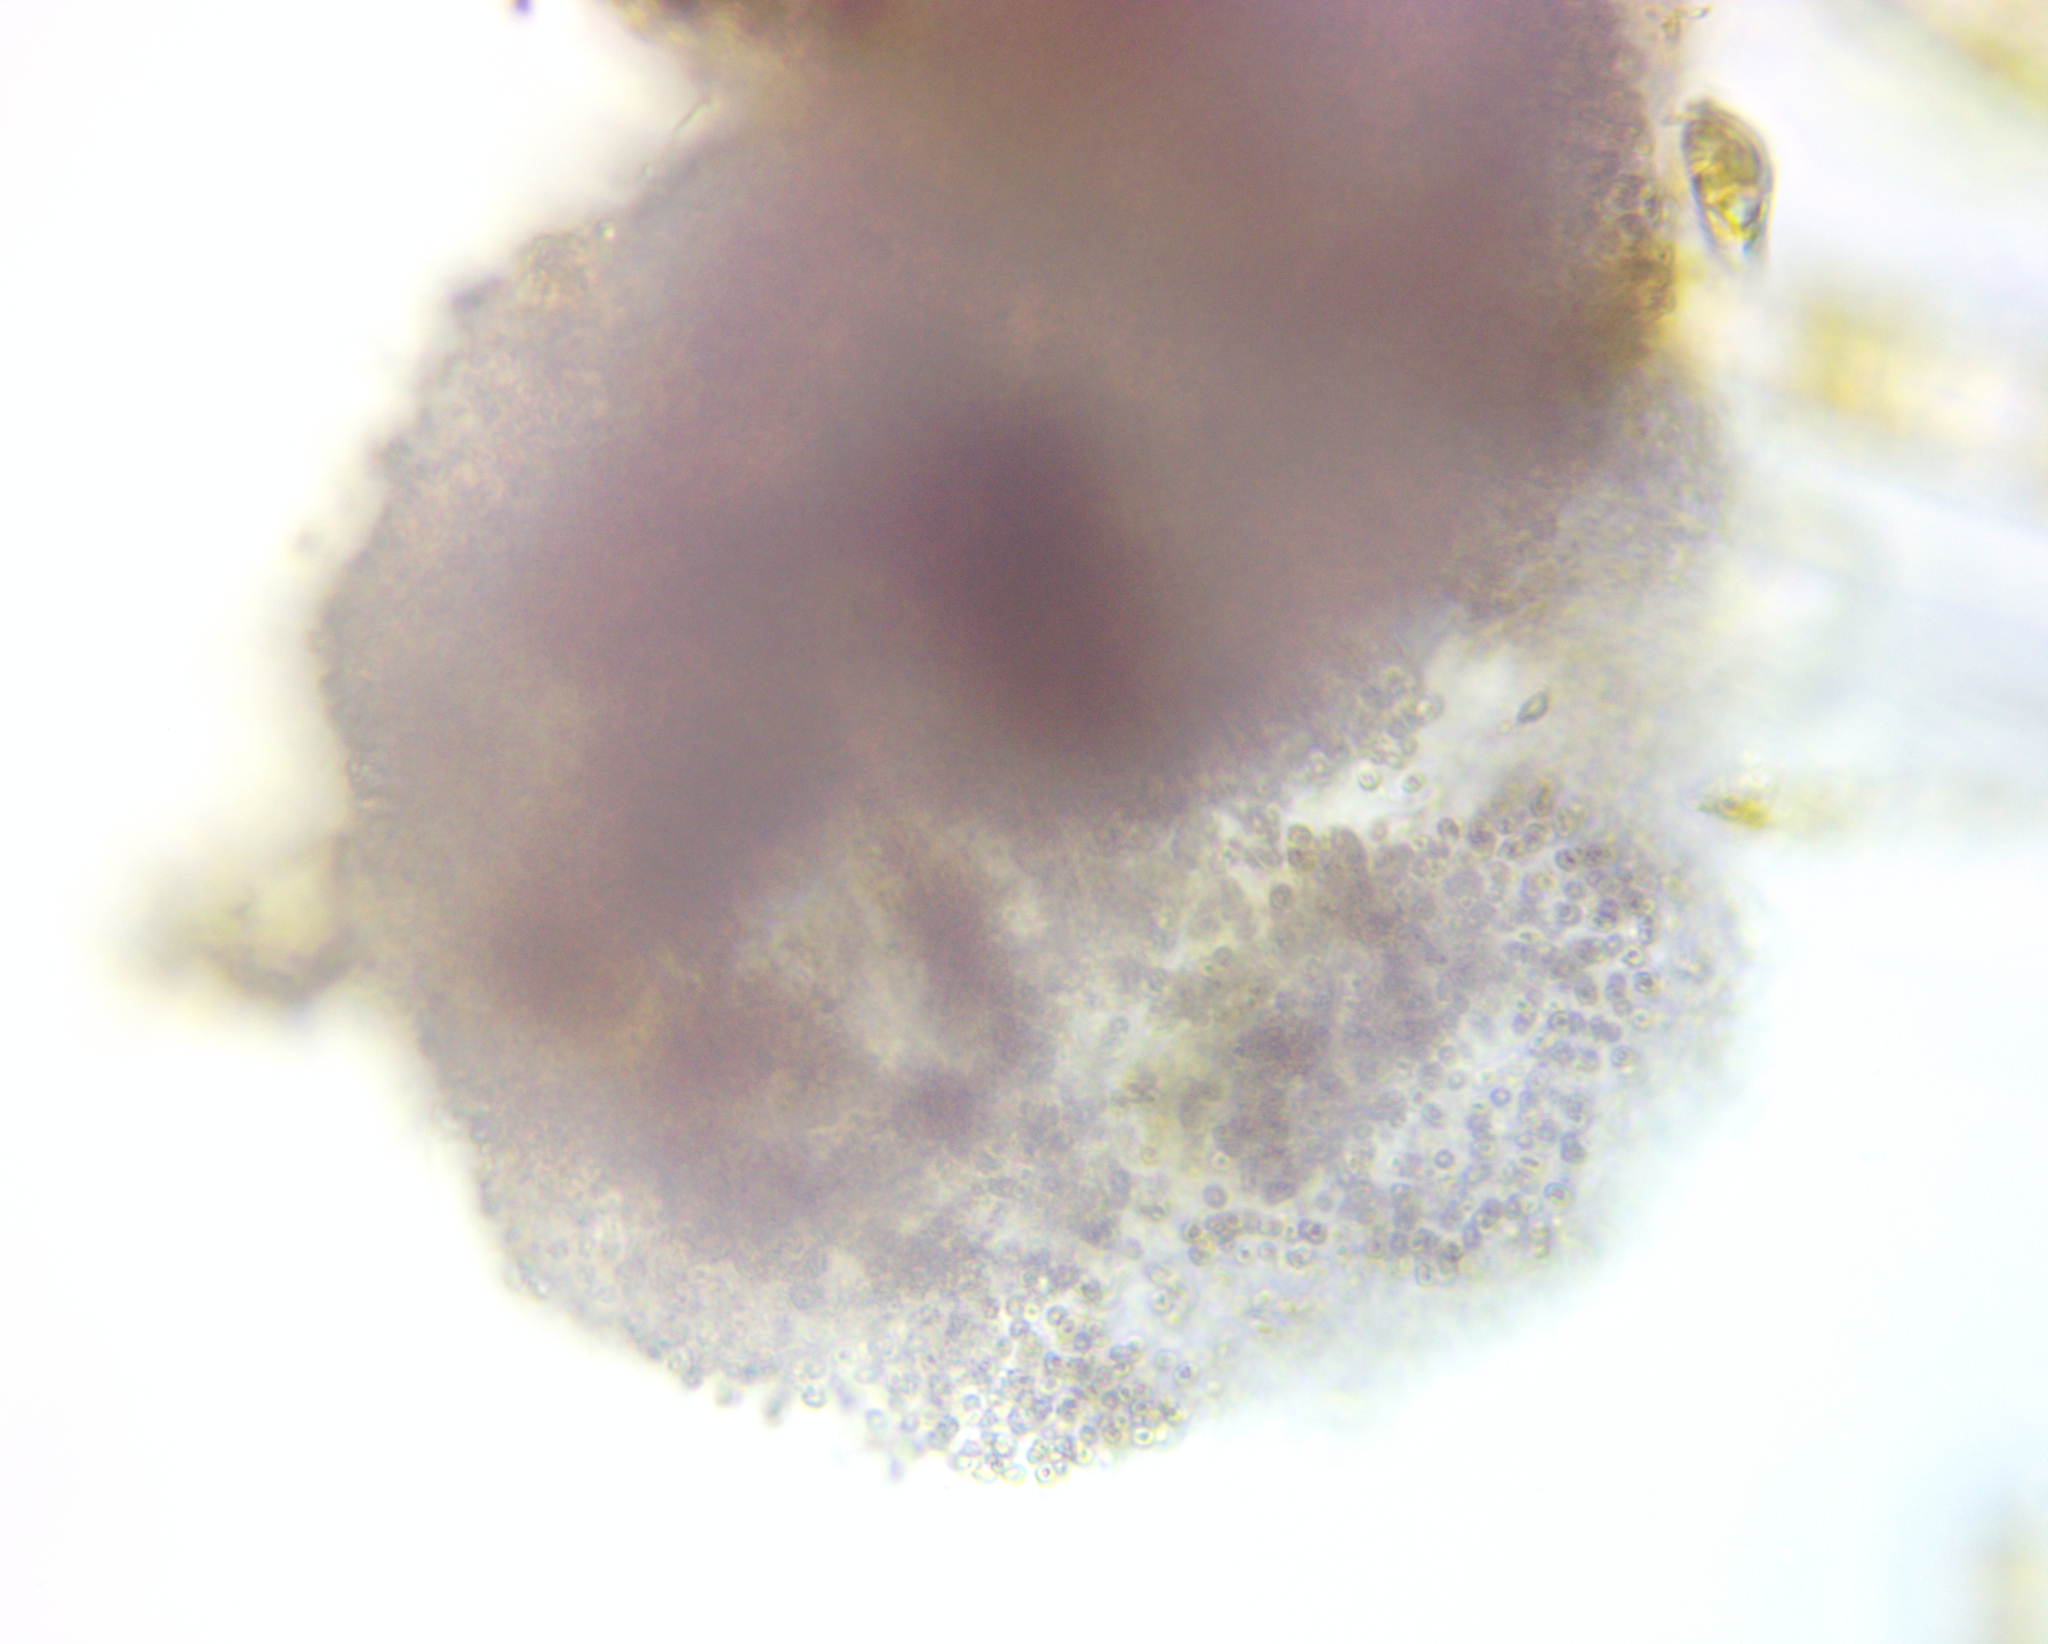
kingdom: Bacteria
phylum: Proteobacteria
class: Gammaproteobacteria
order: Chromatiales
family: Chromatiaceae
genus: Lamprocystis
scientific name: Lamprocystis roseopersicina
